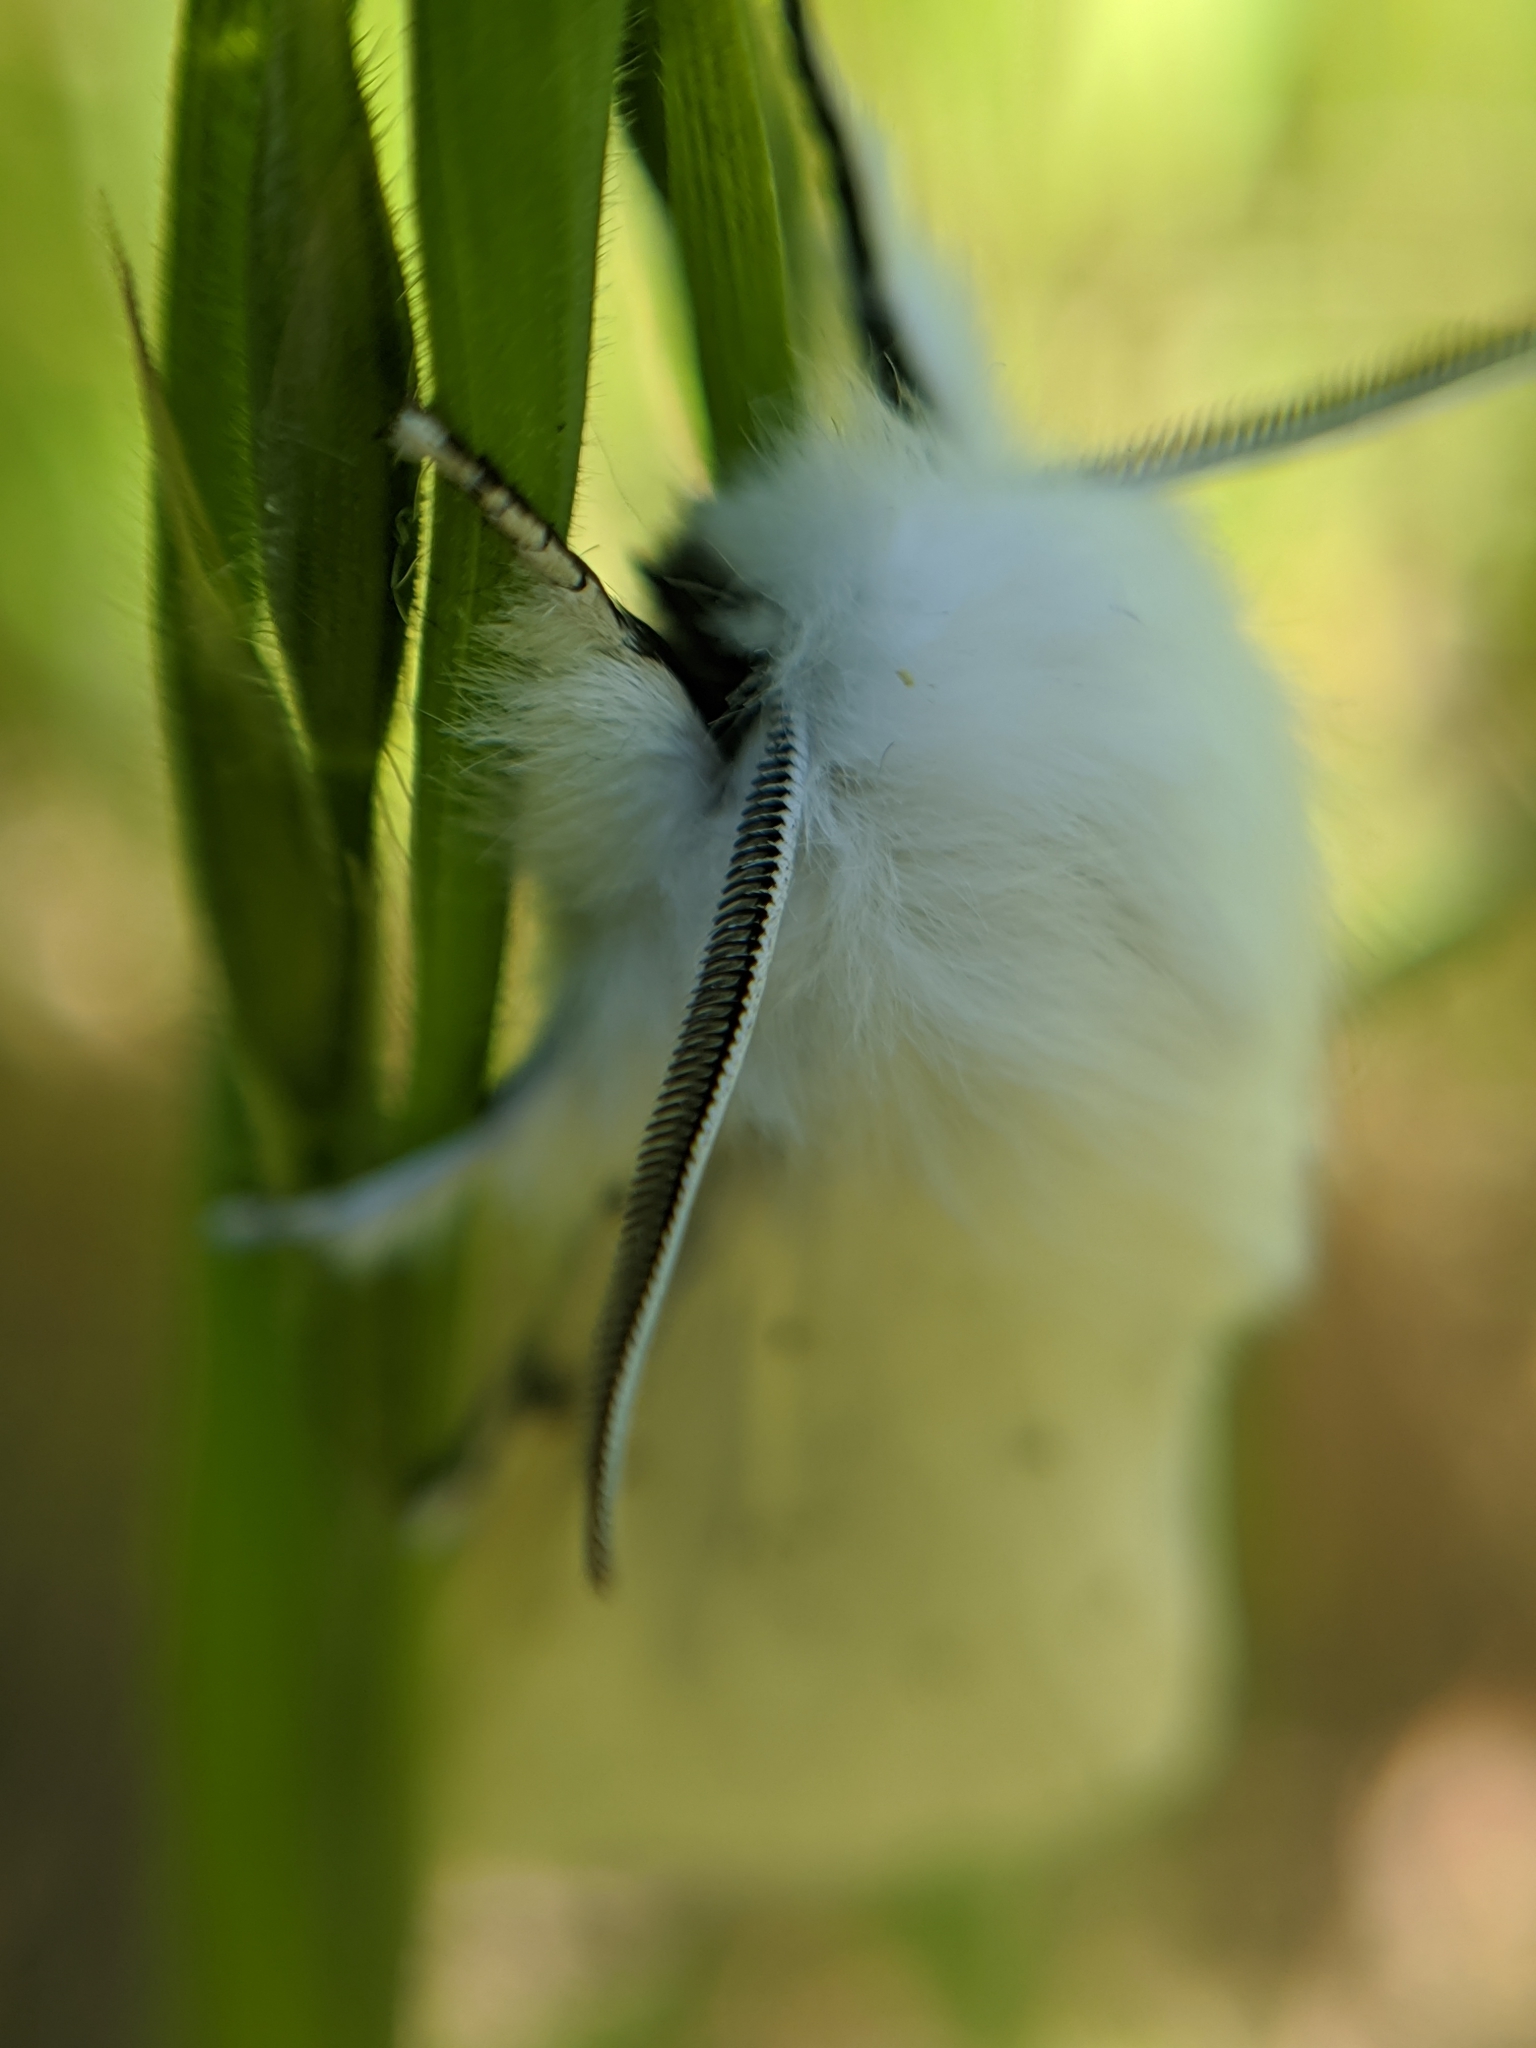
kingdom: Animalia
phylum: Arthropoda
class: Insecta
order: Lepidoptera
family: Erebidae
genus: Spilosoma
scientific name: Spilosoma vestalis
